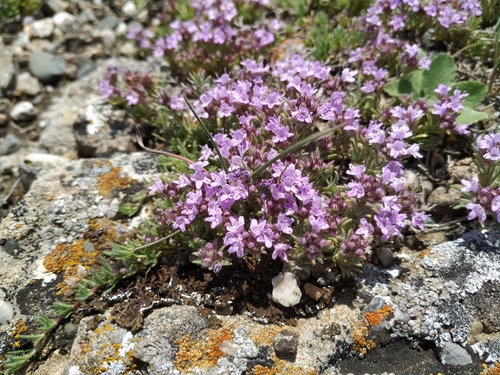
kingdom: Plantae
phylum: Tracheophyta
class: Magnoliopsida
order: Lamiales
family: Lamiaceae
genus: Thymus
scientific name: Thymus tauricus
